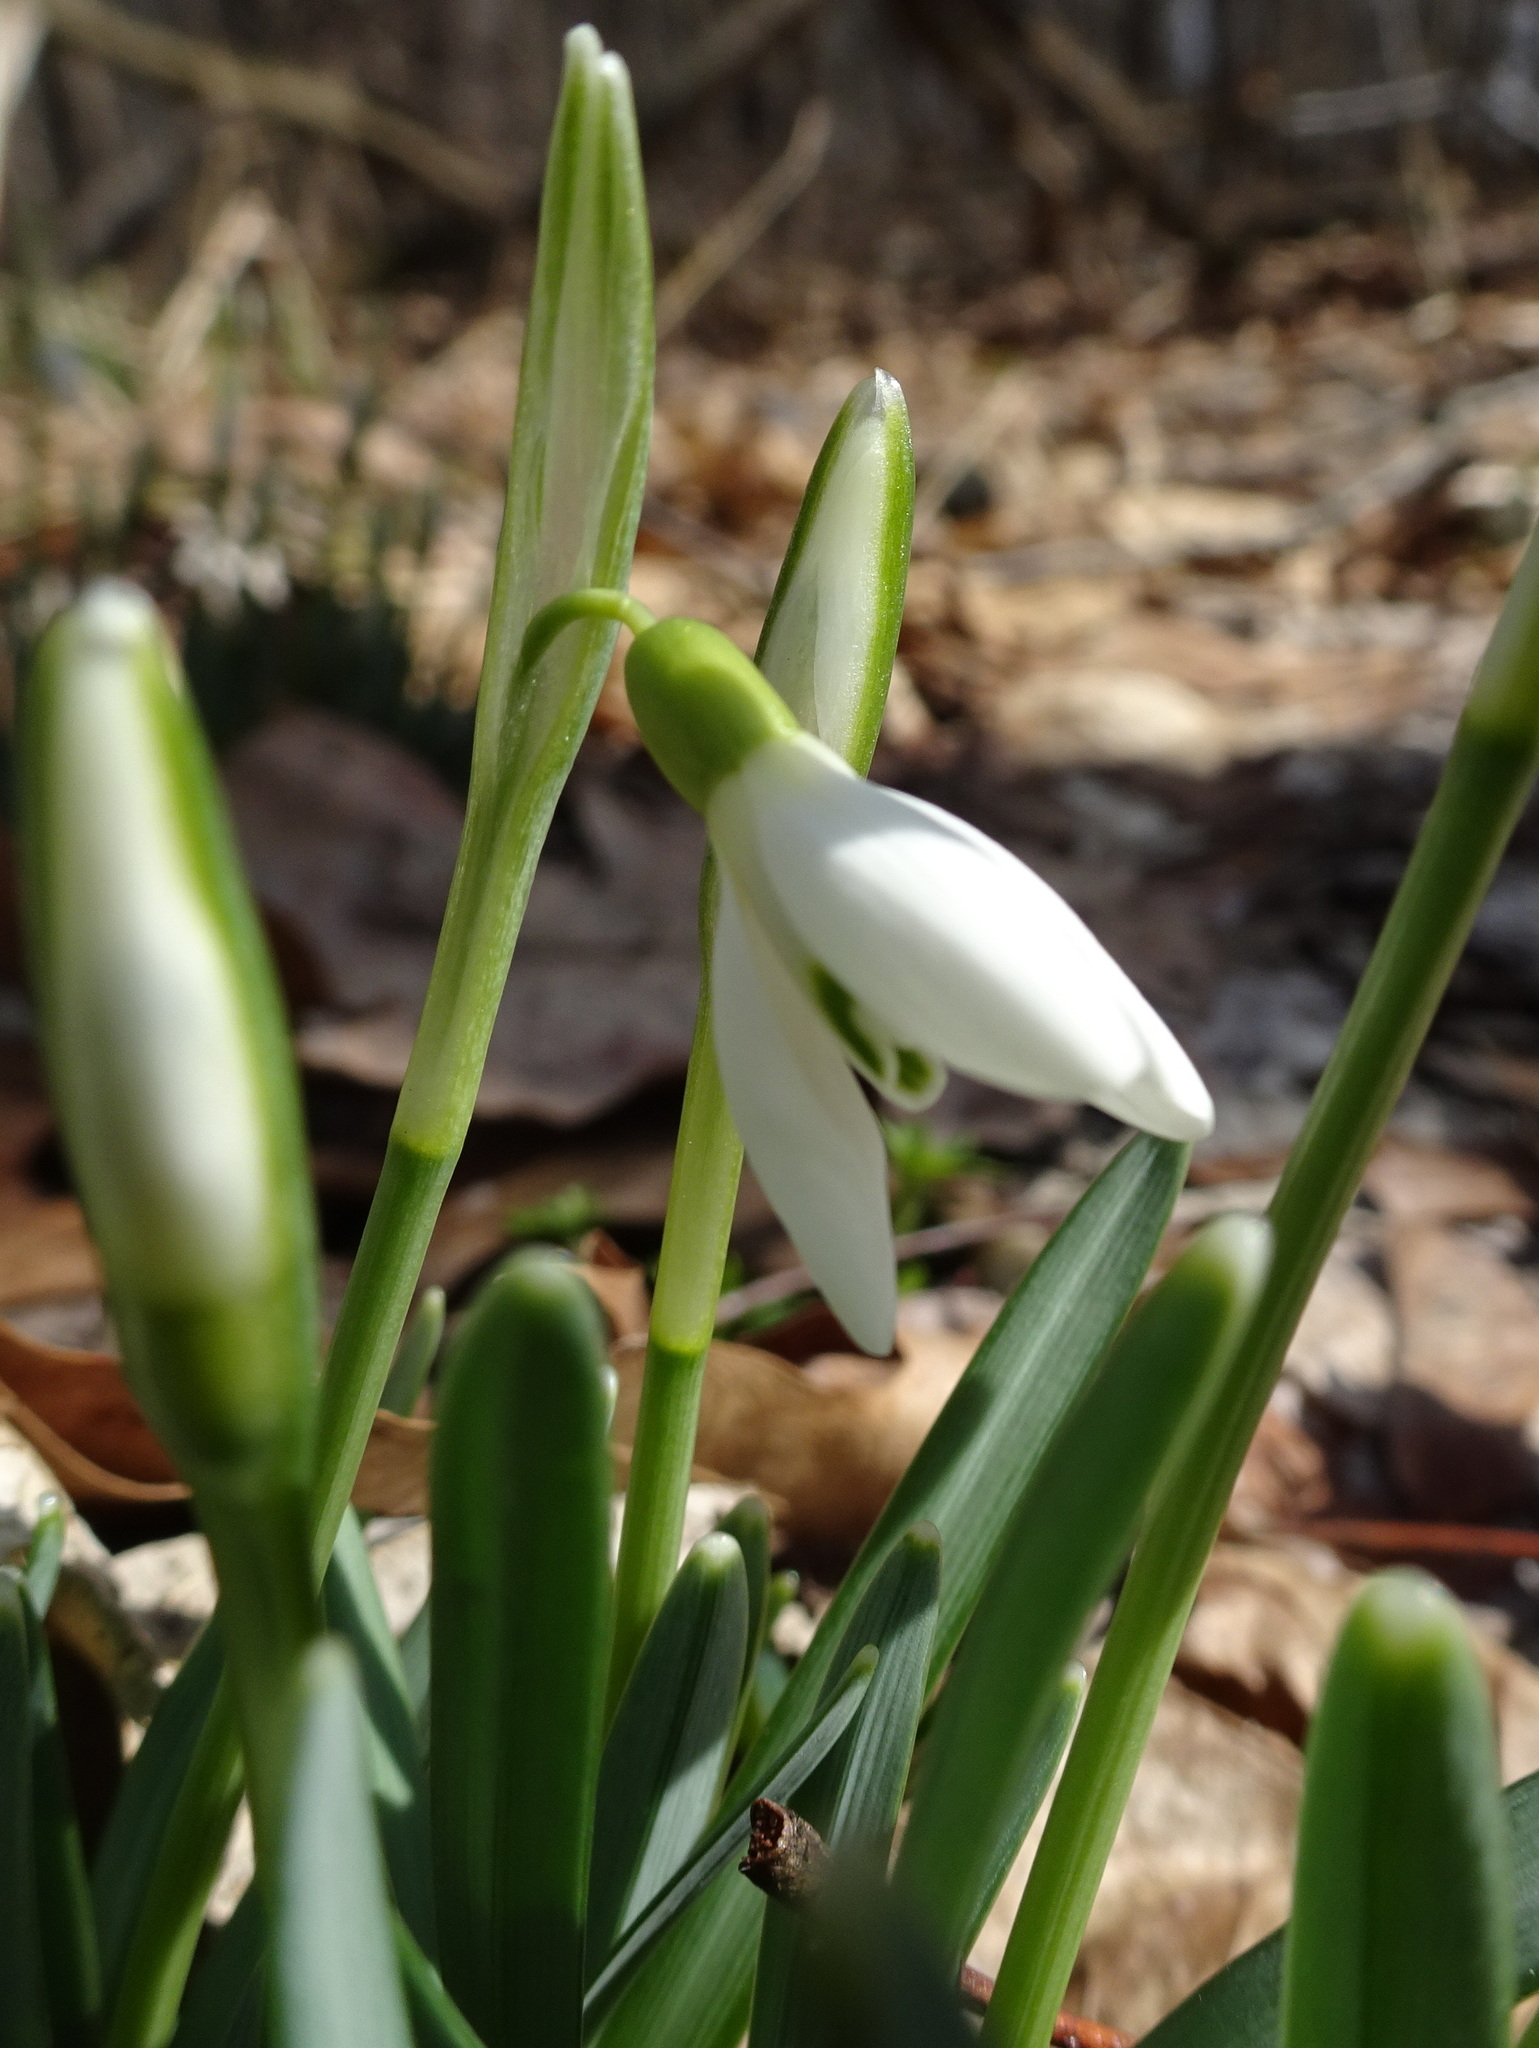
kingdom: Plantae
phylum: Tracheophyta
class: Liliopsida
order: Asparagales
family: Amaryllidaceae
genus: Galanthus
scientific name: Galanthus nivalis
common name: Snowdrop
